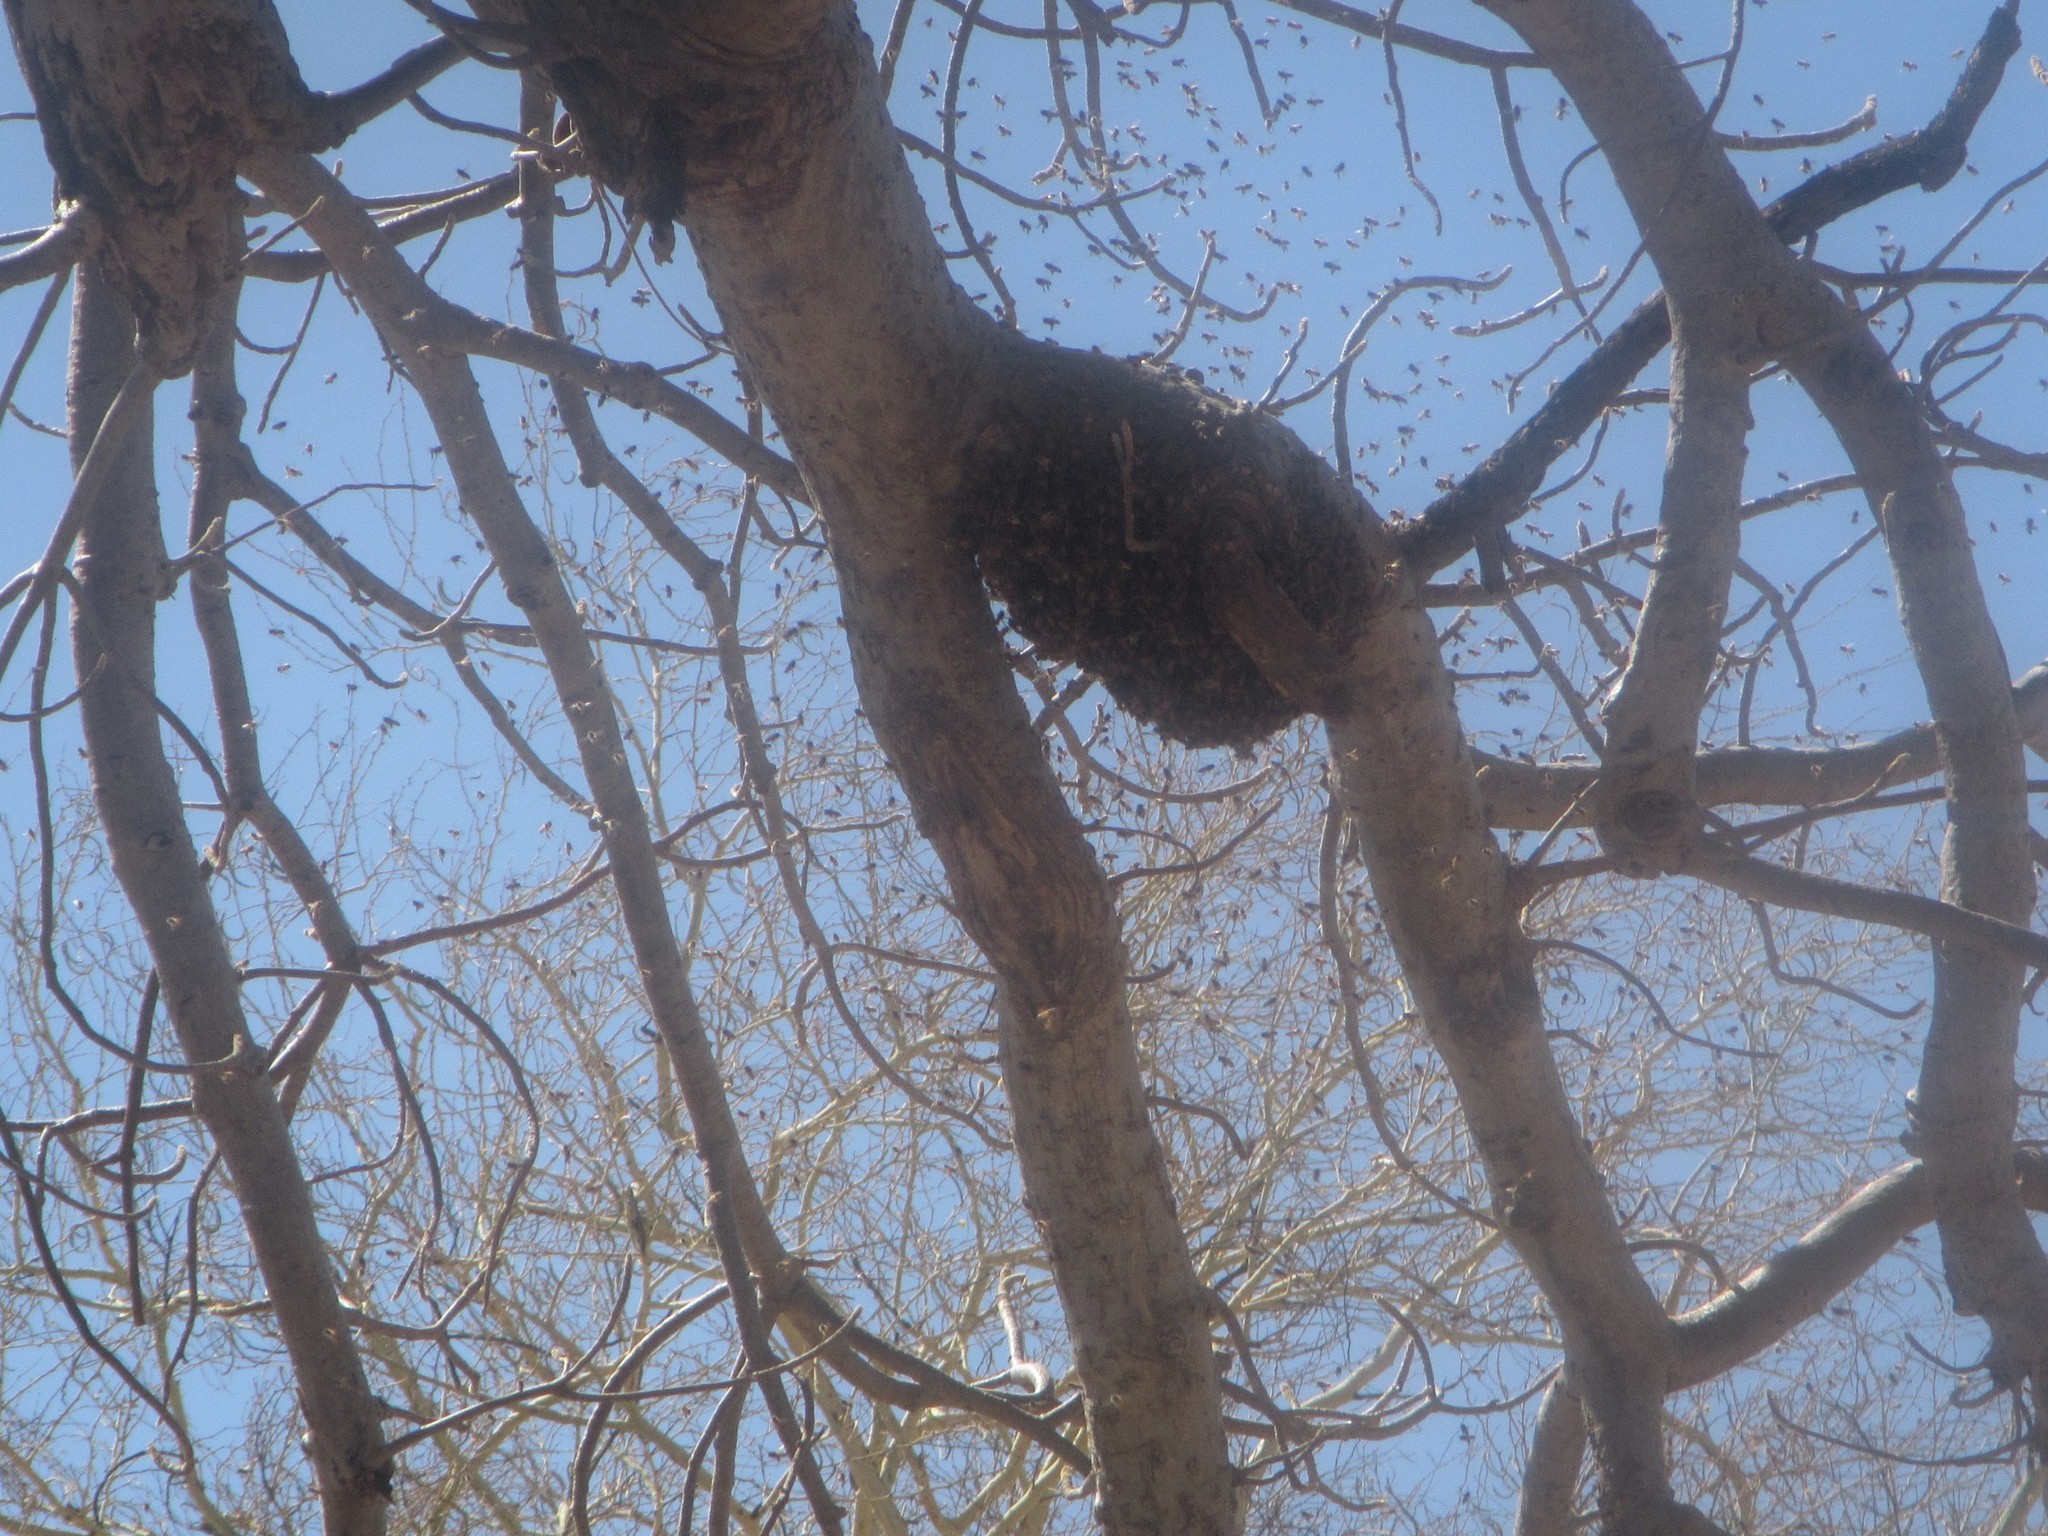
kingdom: Animalia
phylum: Arthropoda
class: Insecta
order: Hymenoptera
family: Apidae
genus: Apis
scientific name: Apis mellifera
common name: Honey bee
